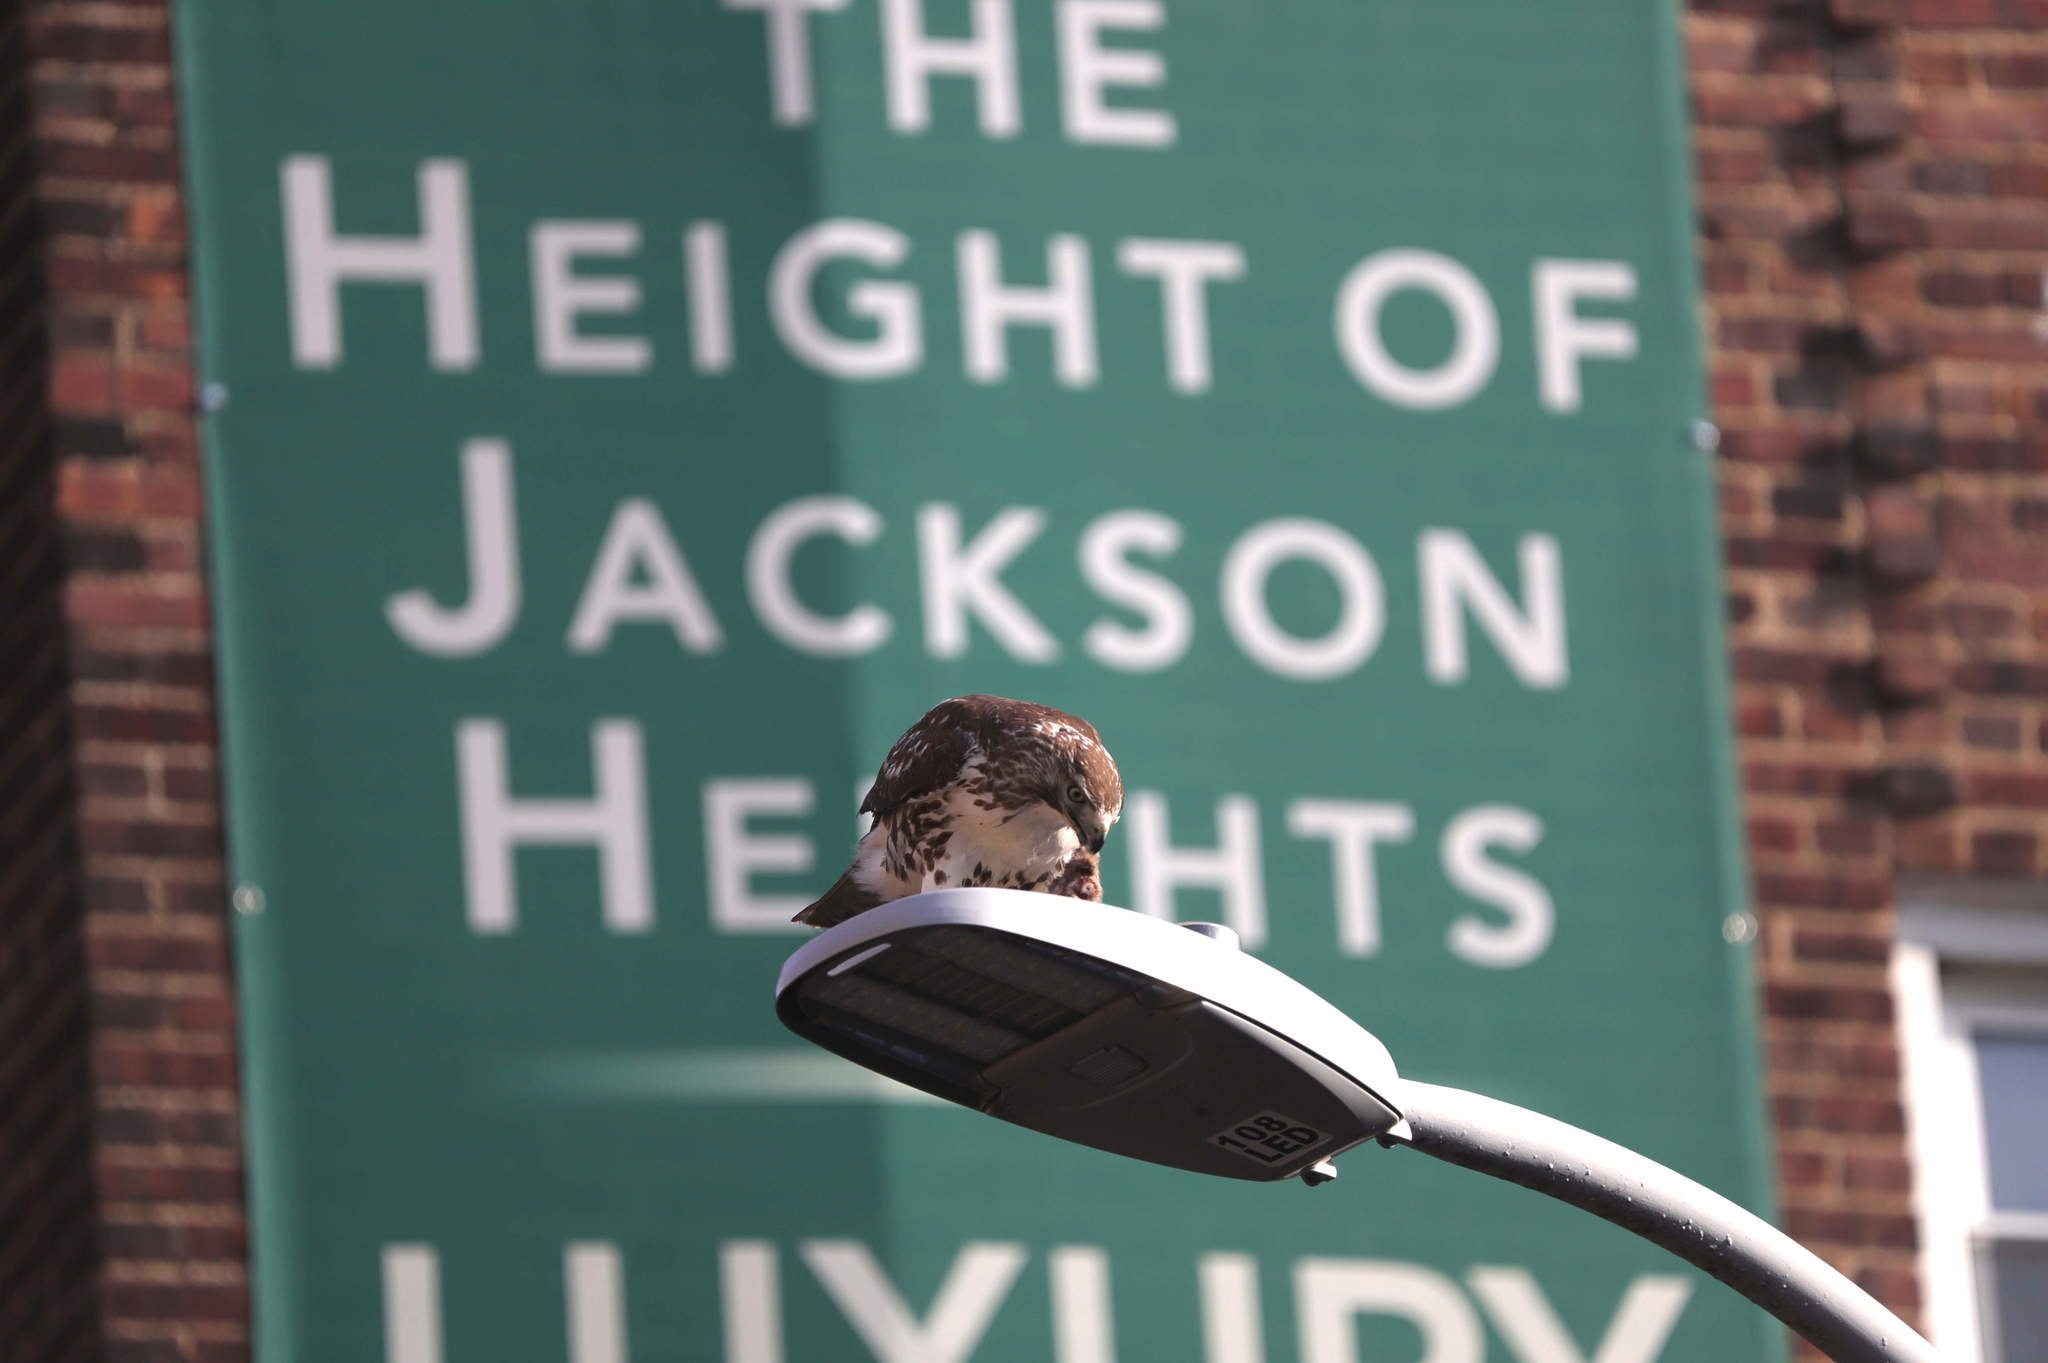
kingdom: Animalia
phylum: Chordata
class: Aves
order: Accipitriformes
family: Accipitridae
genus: Buteo
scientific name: Buteo jamaicensis
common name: Red-tailed hawk
